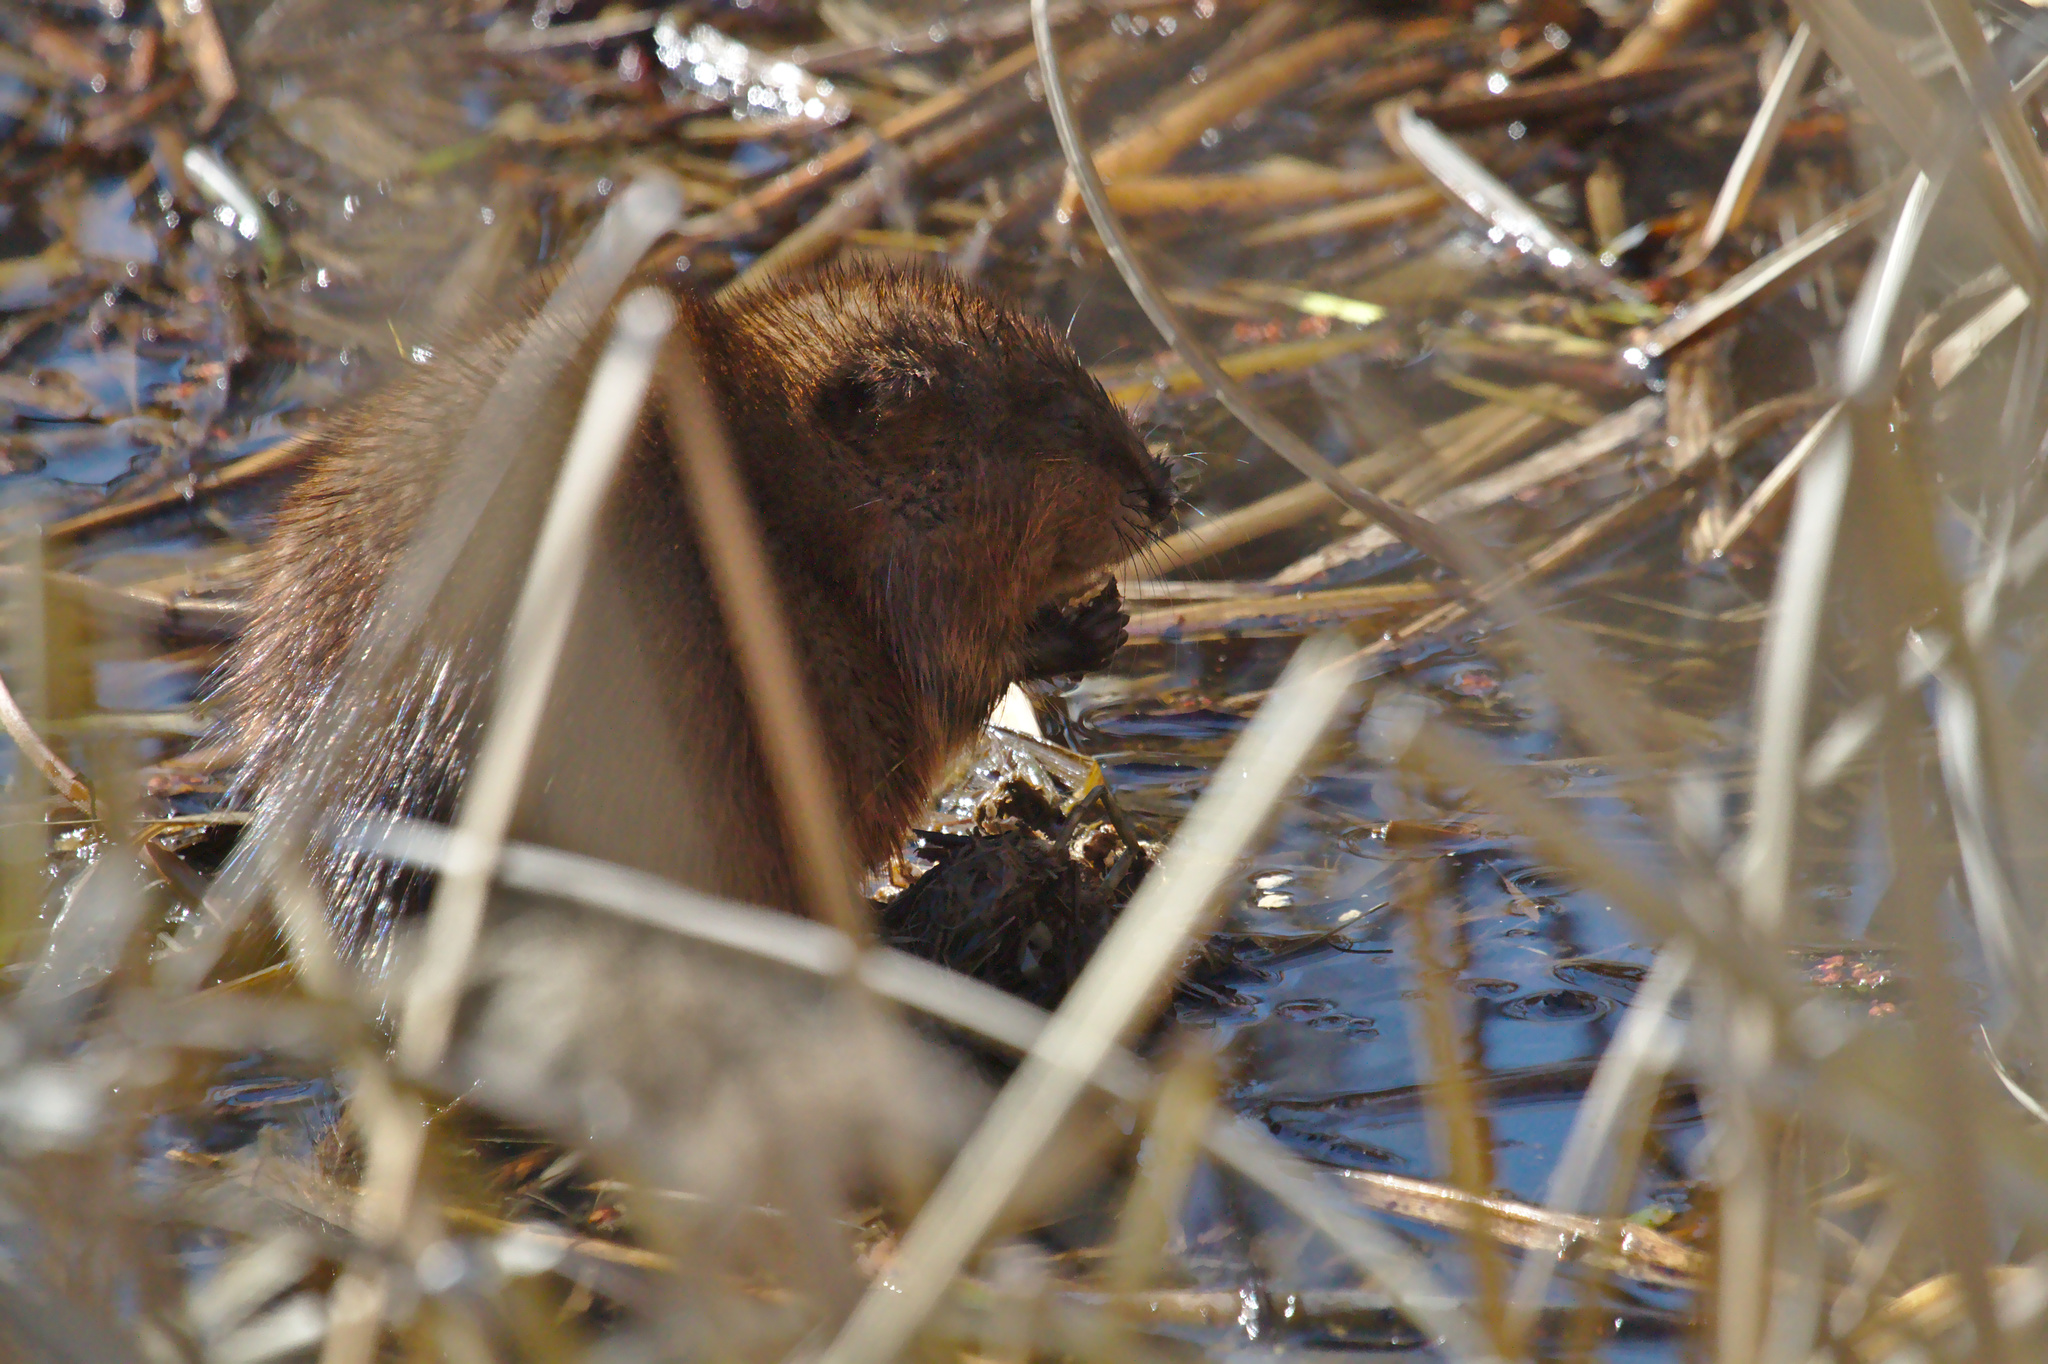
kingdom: Animalia
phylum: Chordata
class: Mammalia
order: Rodentia
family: Cricetidae
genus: Ondatra
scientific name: Ondatra zibethicus
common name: Muskrat
